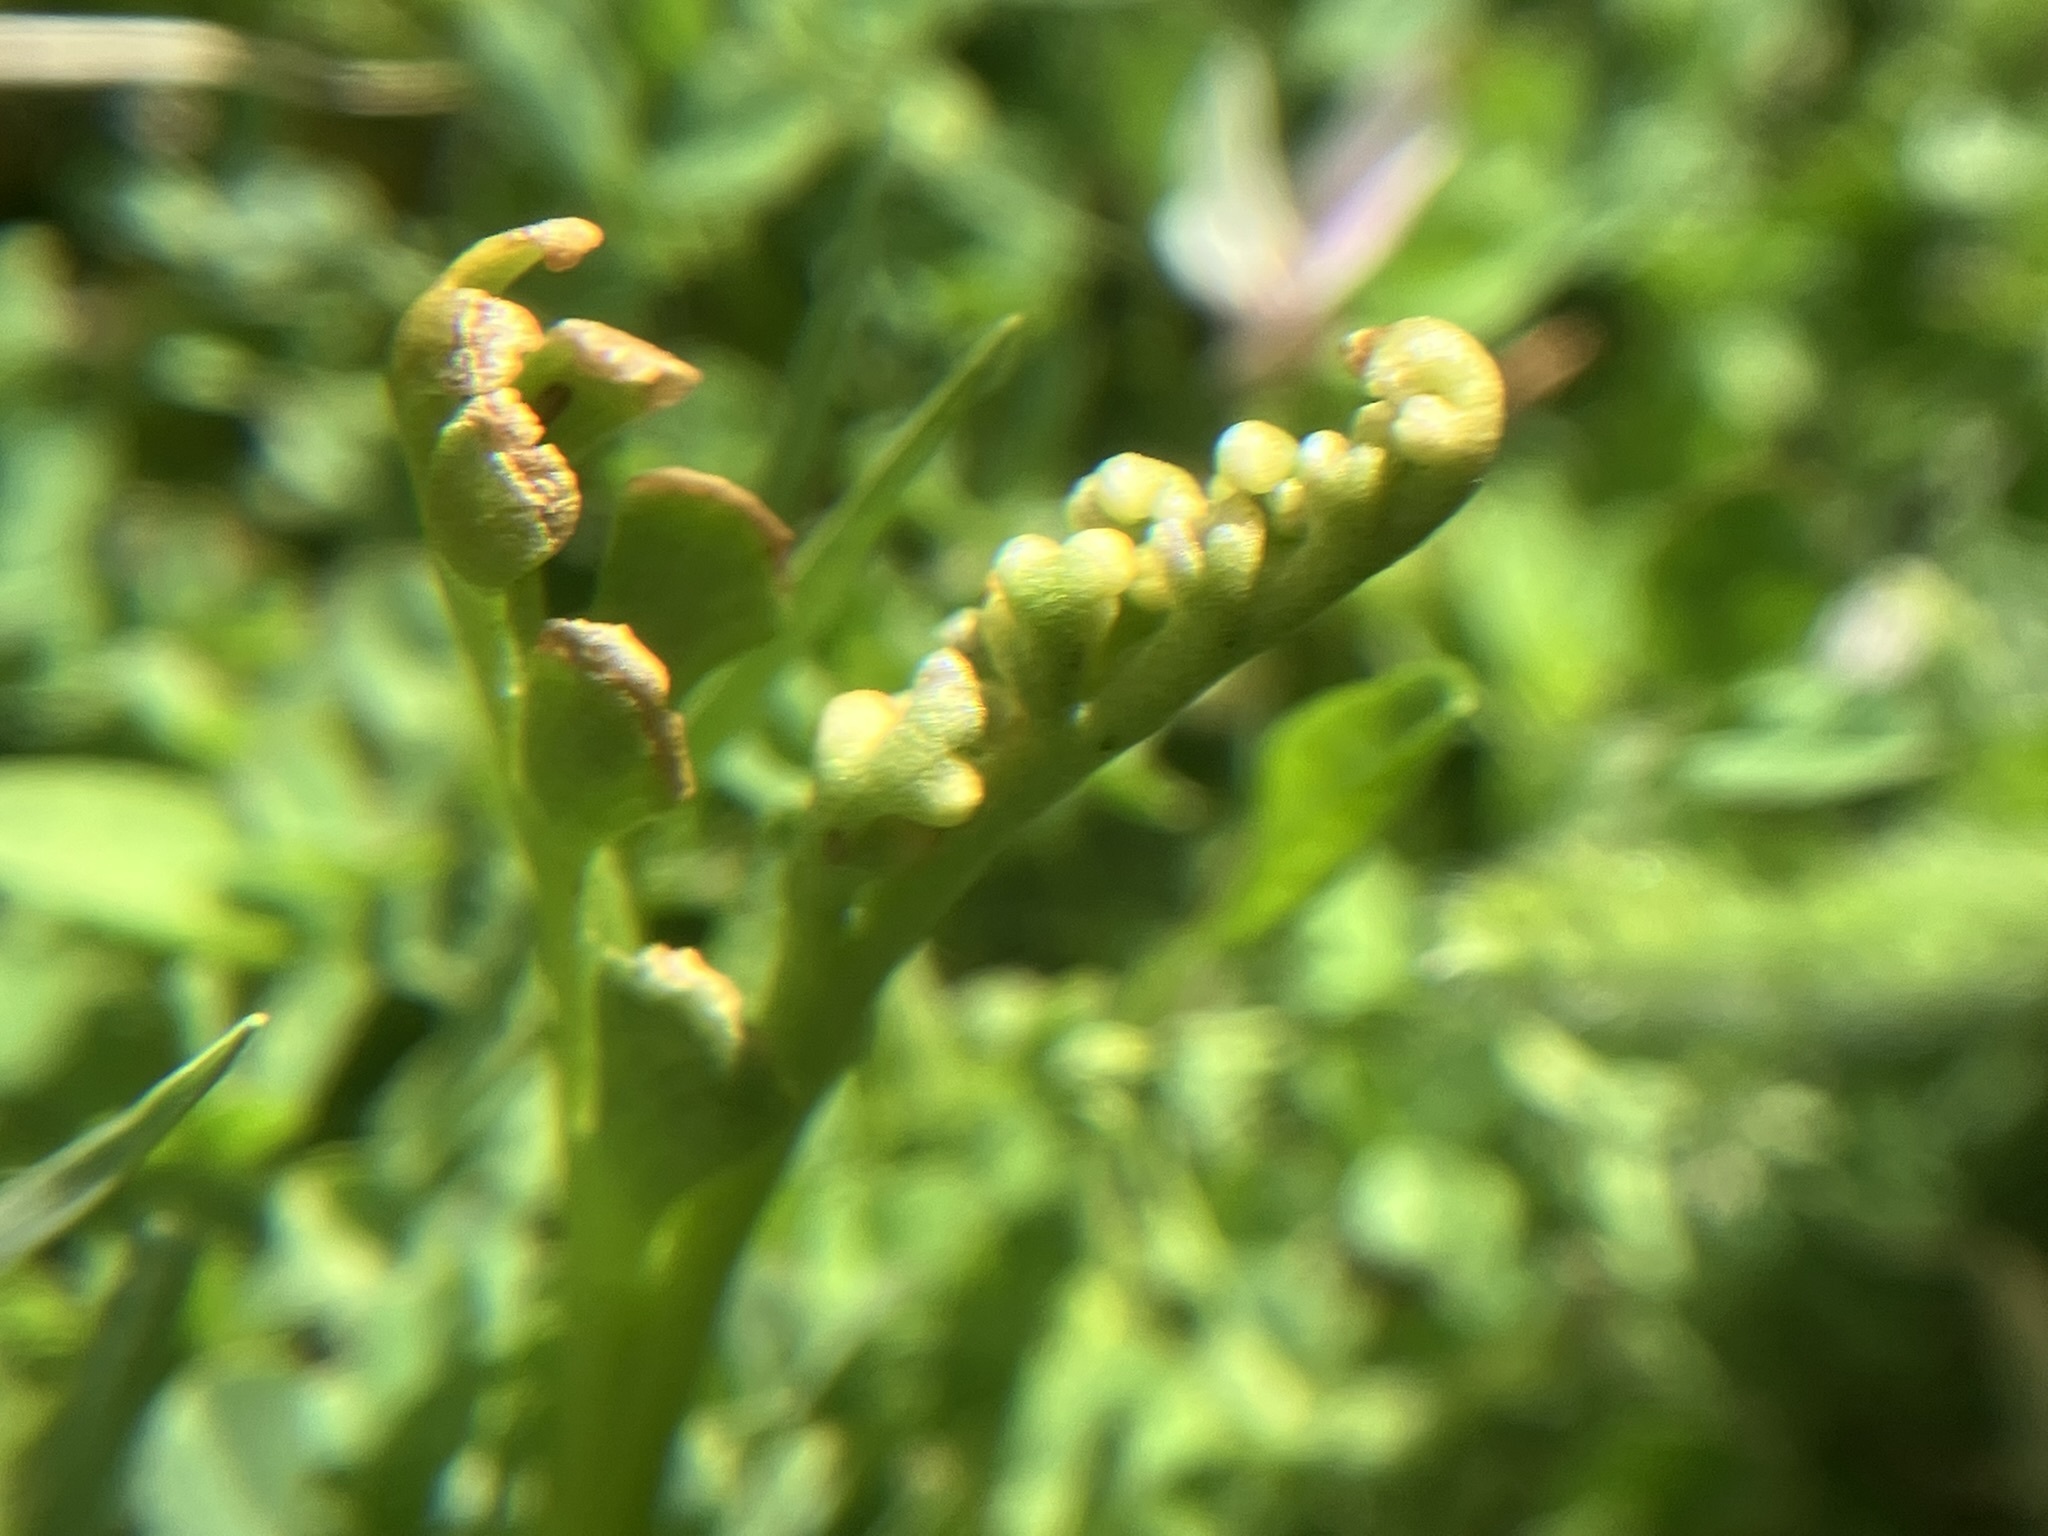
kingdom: Plantae
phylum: Tracheophyta
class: Polypodiopsida
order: Ophioglossales
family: Ophioglossaceae
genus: Botrychium
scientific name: Botrychium ascendens
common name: Ascending grapefern
